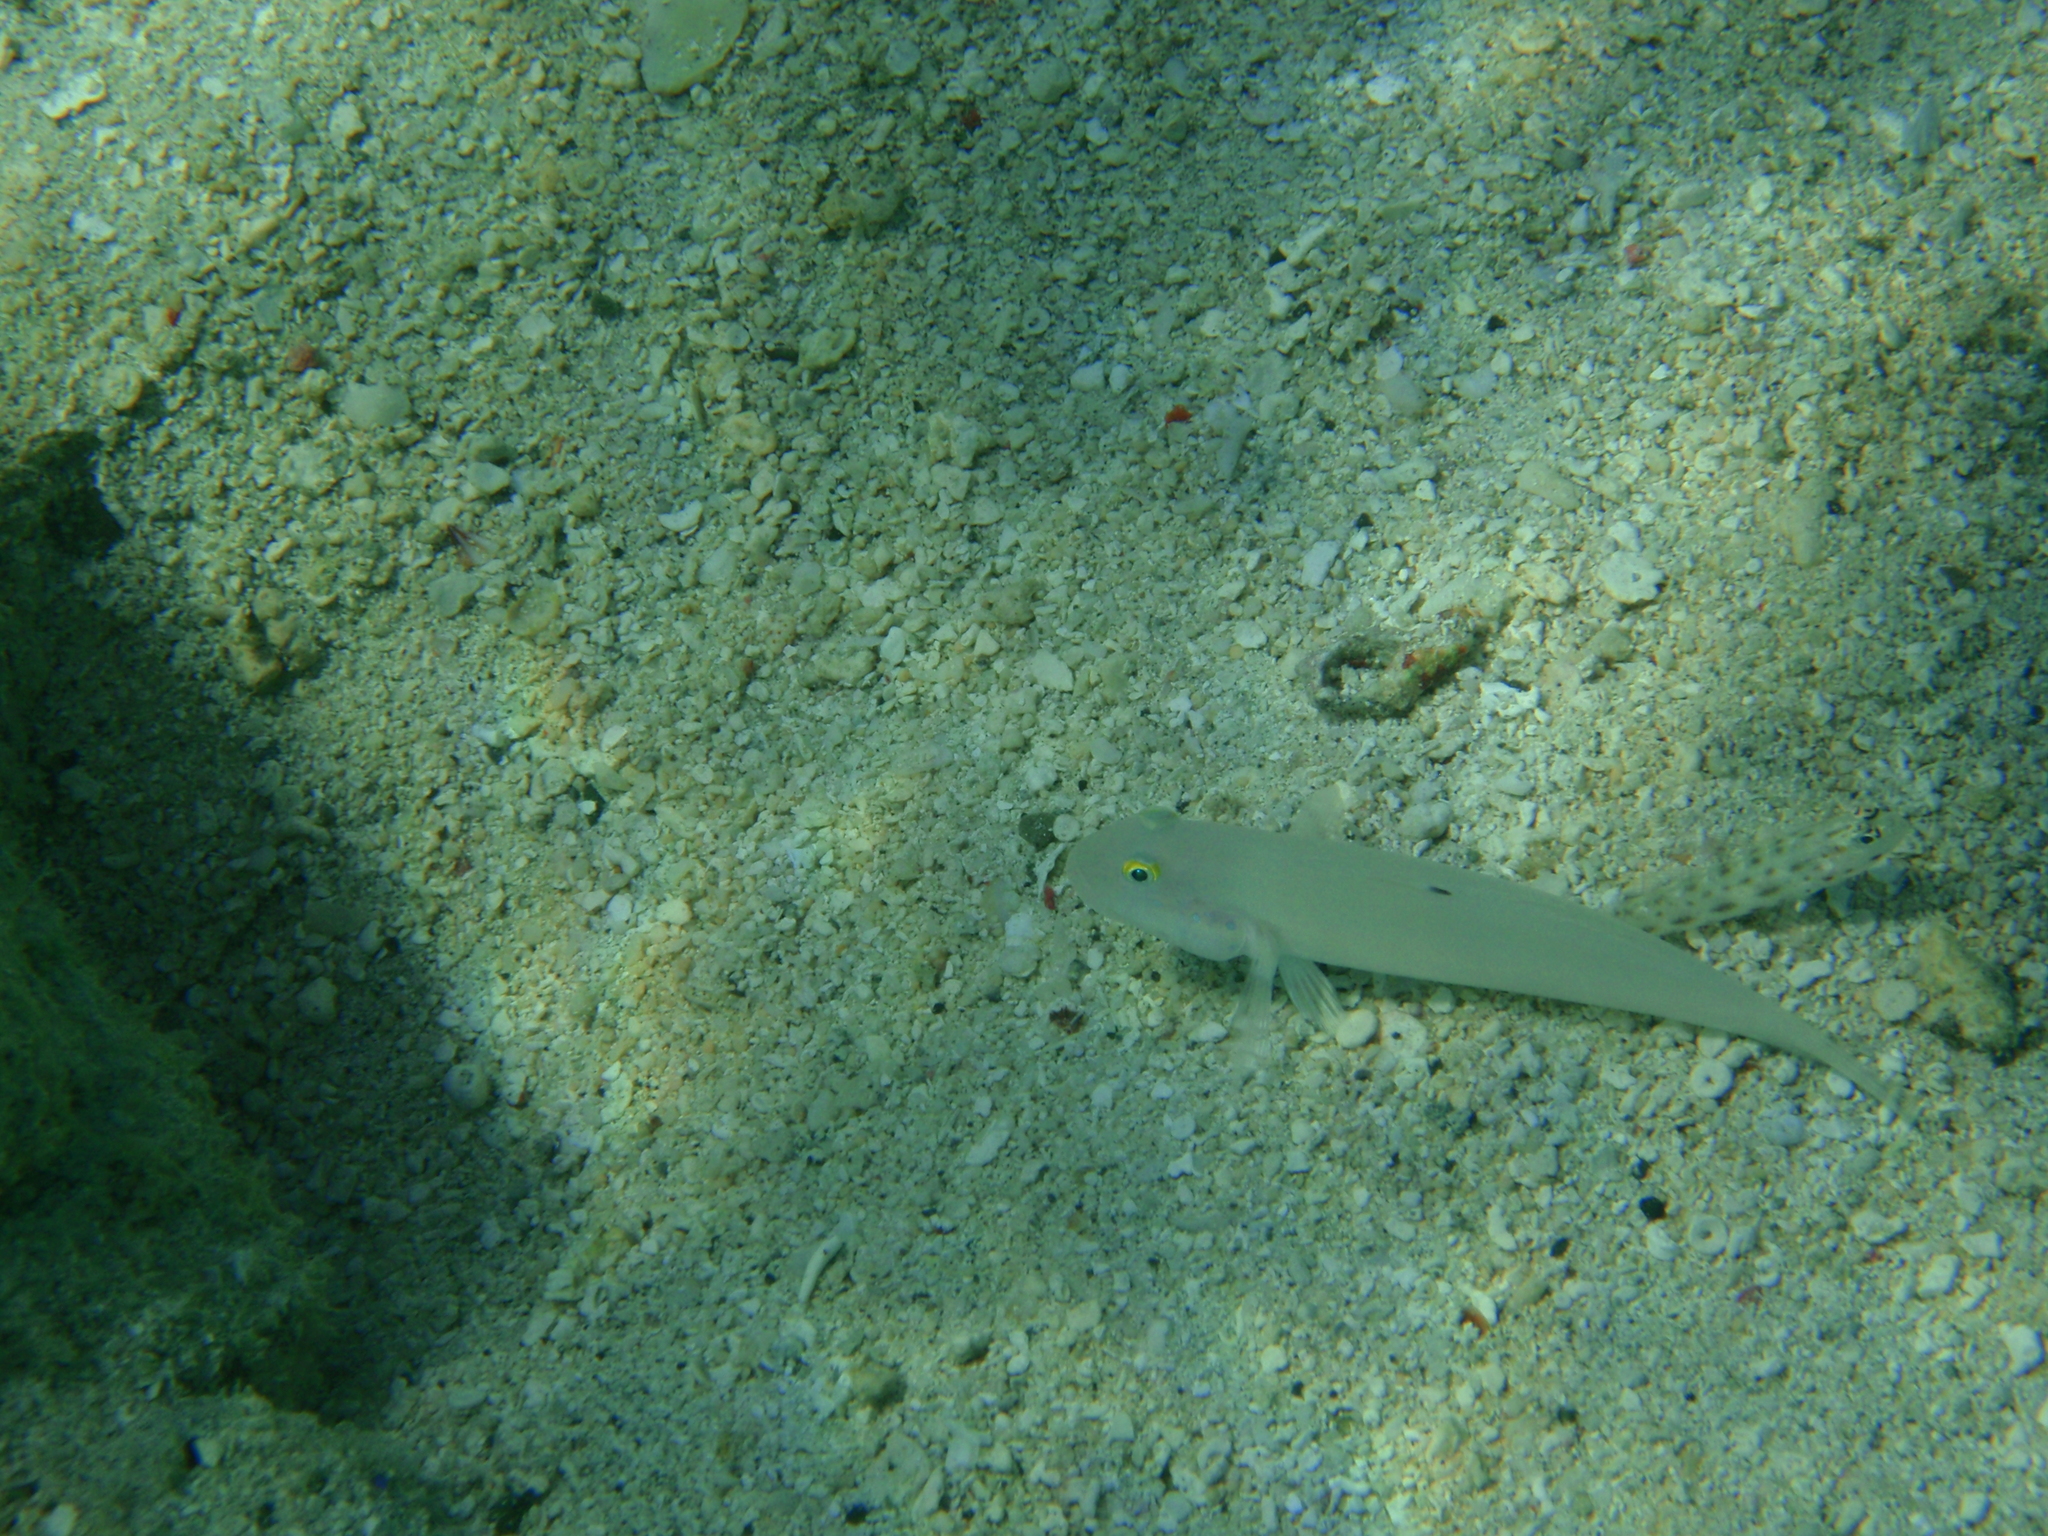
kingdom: Animalia
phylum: Chordata
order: Perciformes
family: Gobiidae
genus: Valenciennea
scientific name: Valenciennea sexguttata
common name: Sixspot goby
